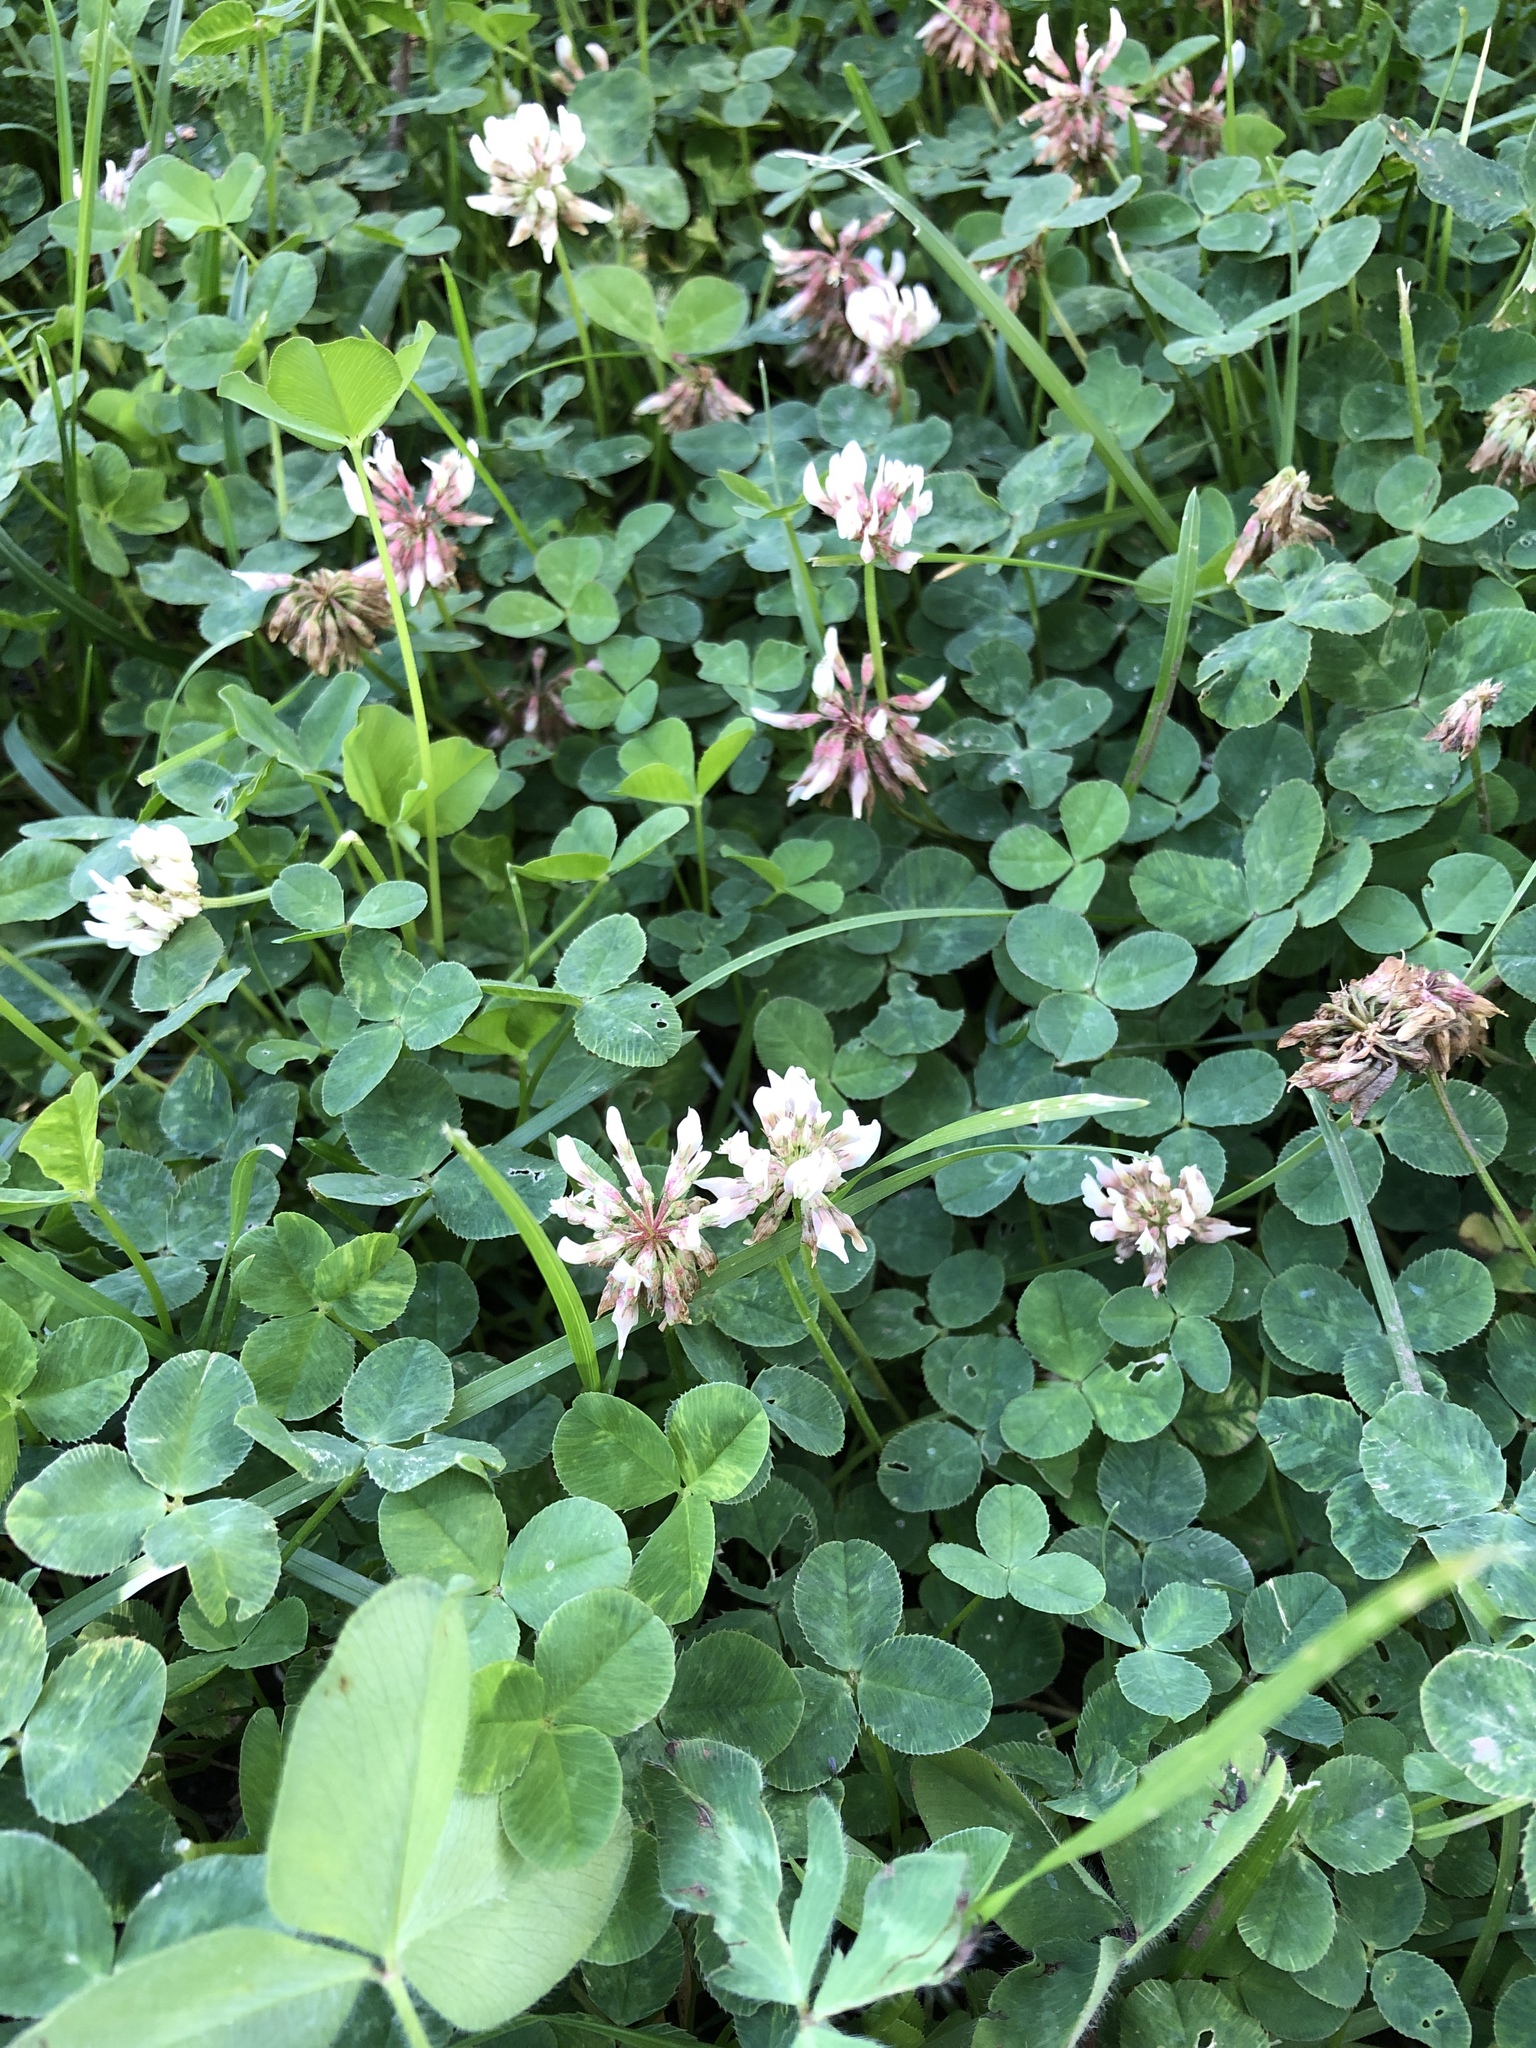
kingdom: Plantae
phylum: Tracheophyta
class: Magnoliopsida
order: Fabales
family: Fabaceae
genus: Trifolium
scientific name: Trifolium repens
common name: White clover
